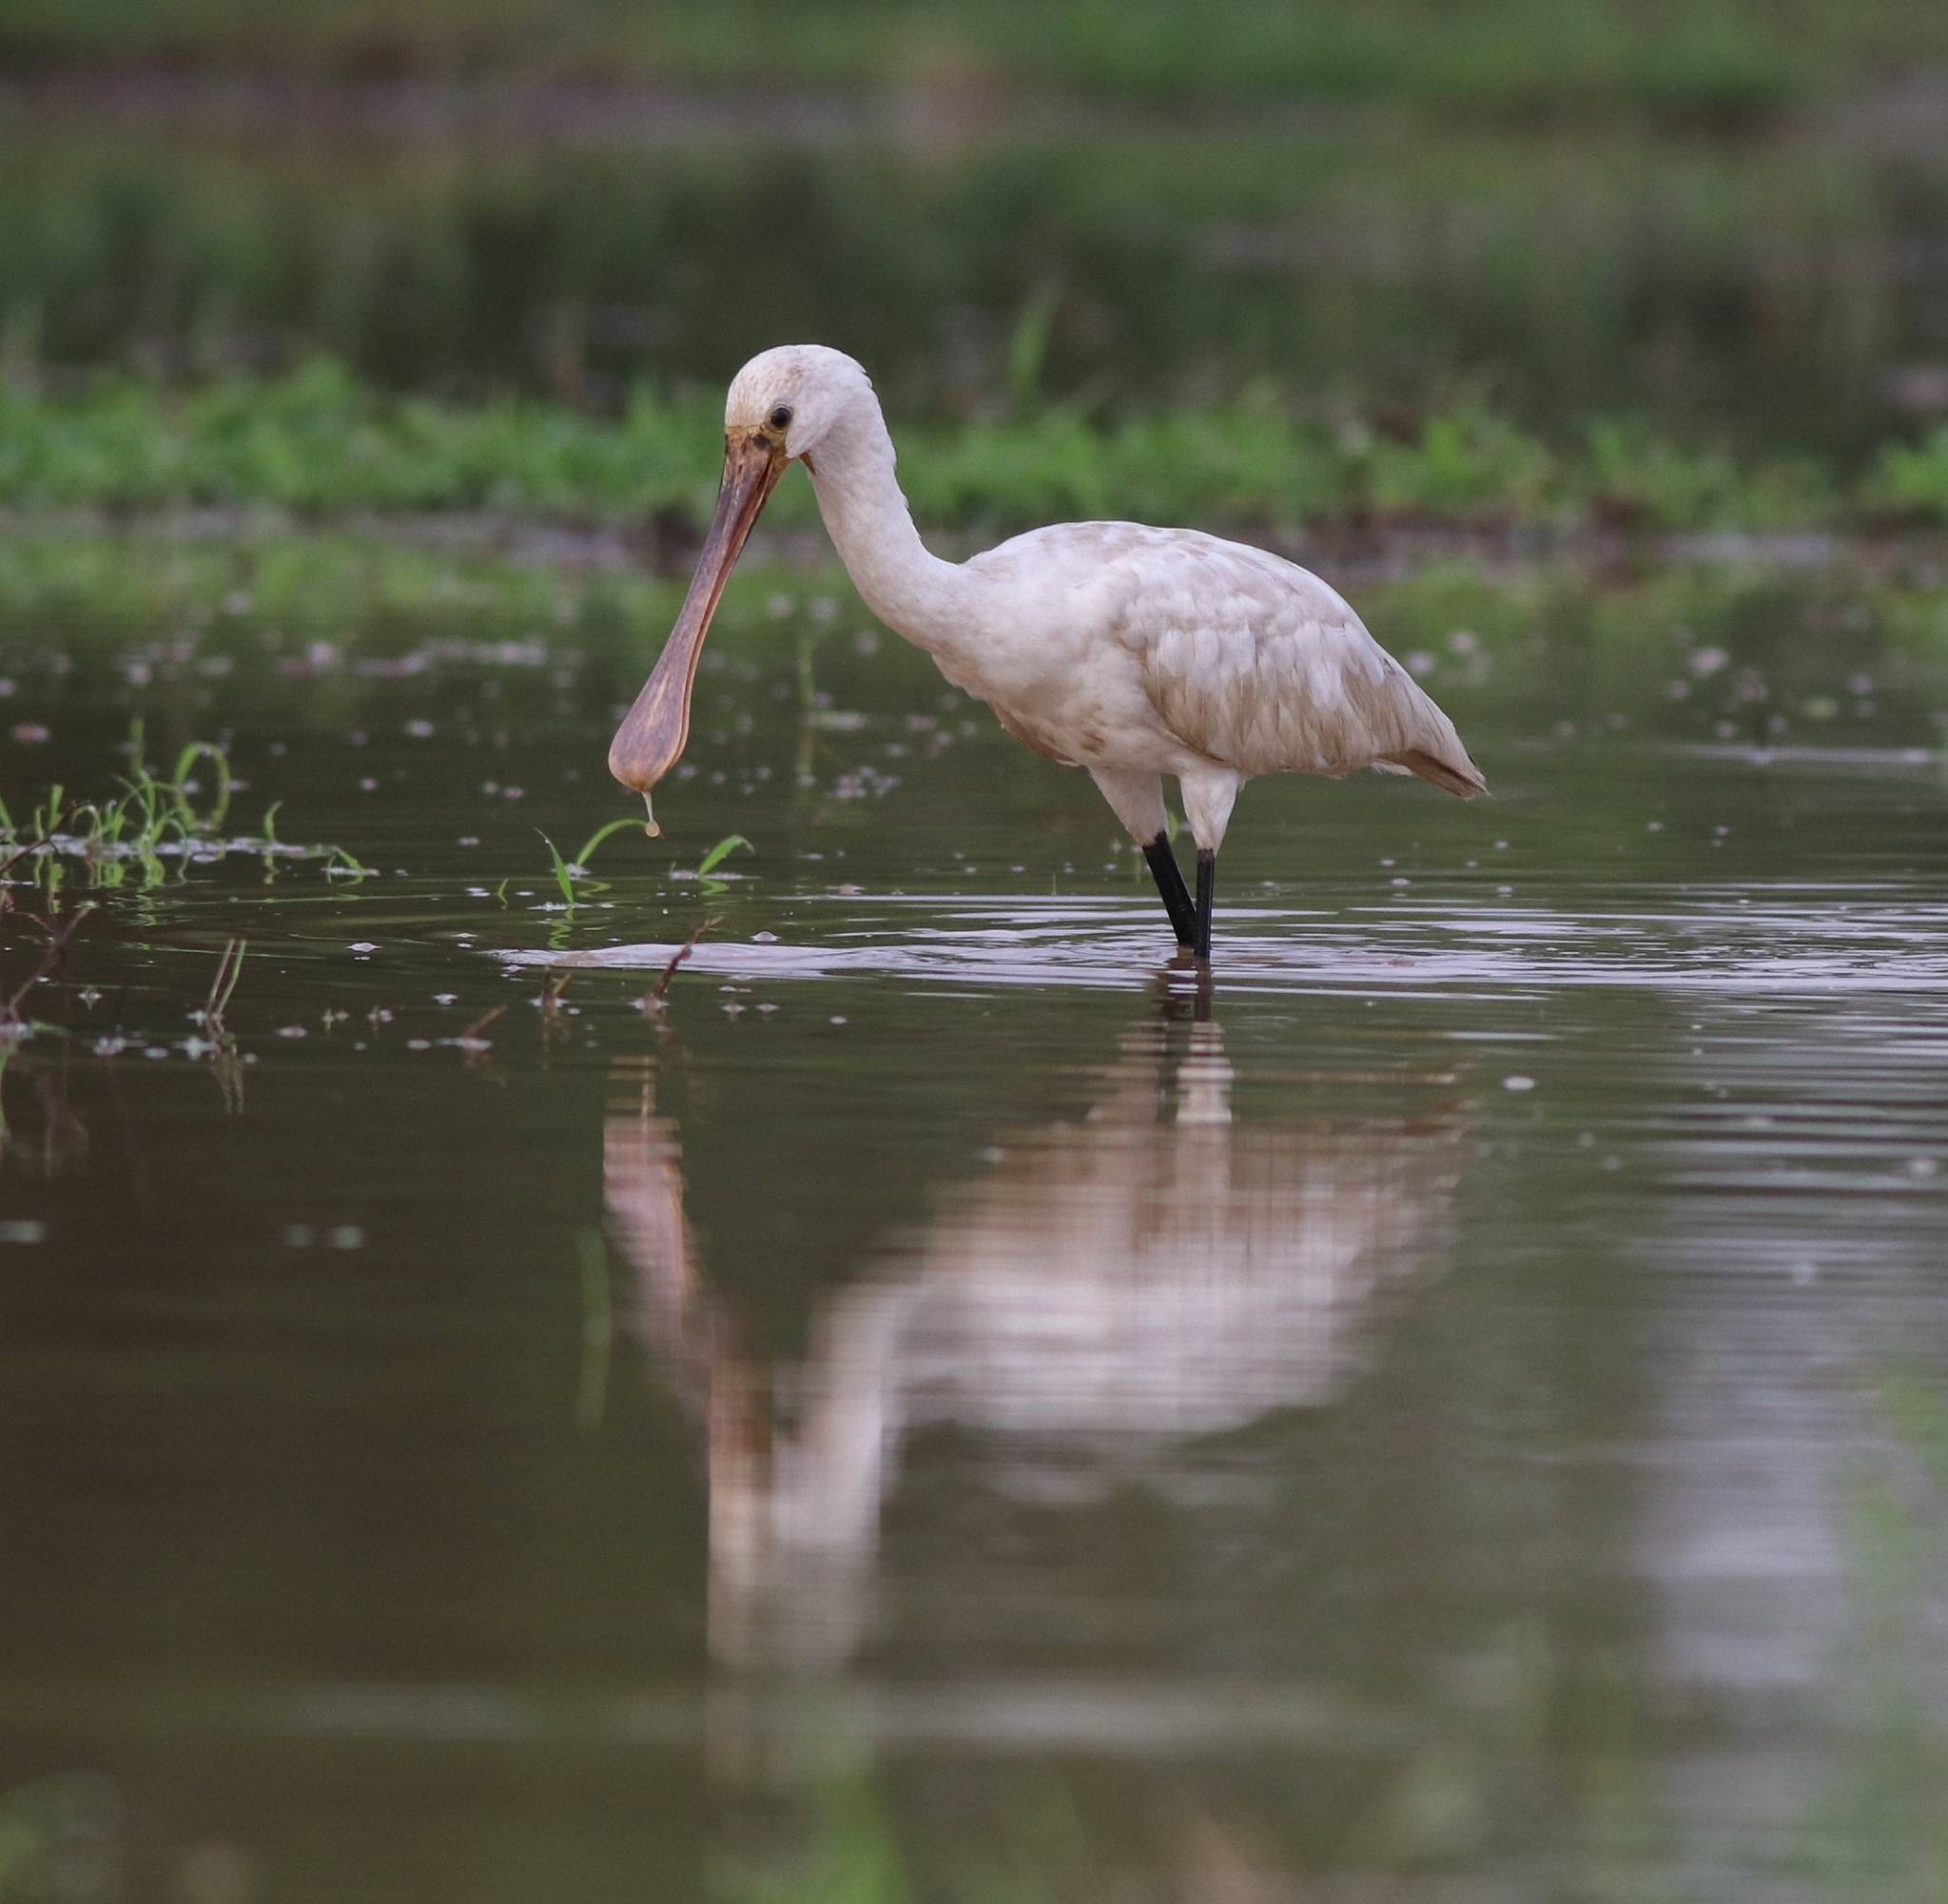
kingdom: Animalia
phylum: Chordata
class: Aves
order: Pelecaniformes
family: Threskiornithidae
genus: Platalea
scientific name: Platalea leucorodia
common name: Eurasian spoonbill
